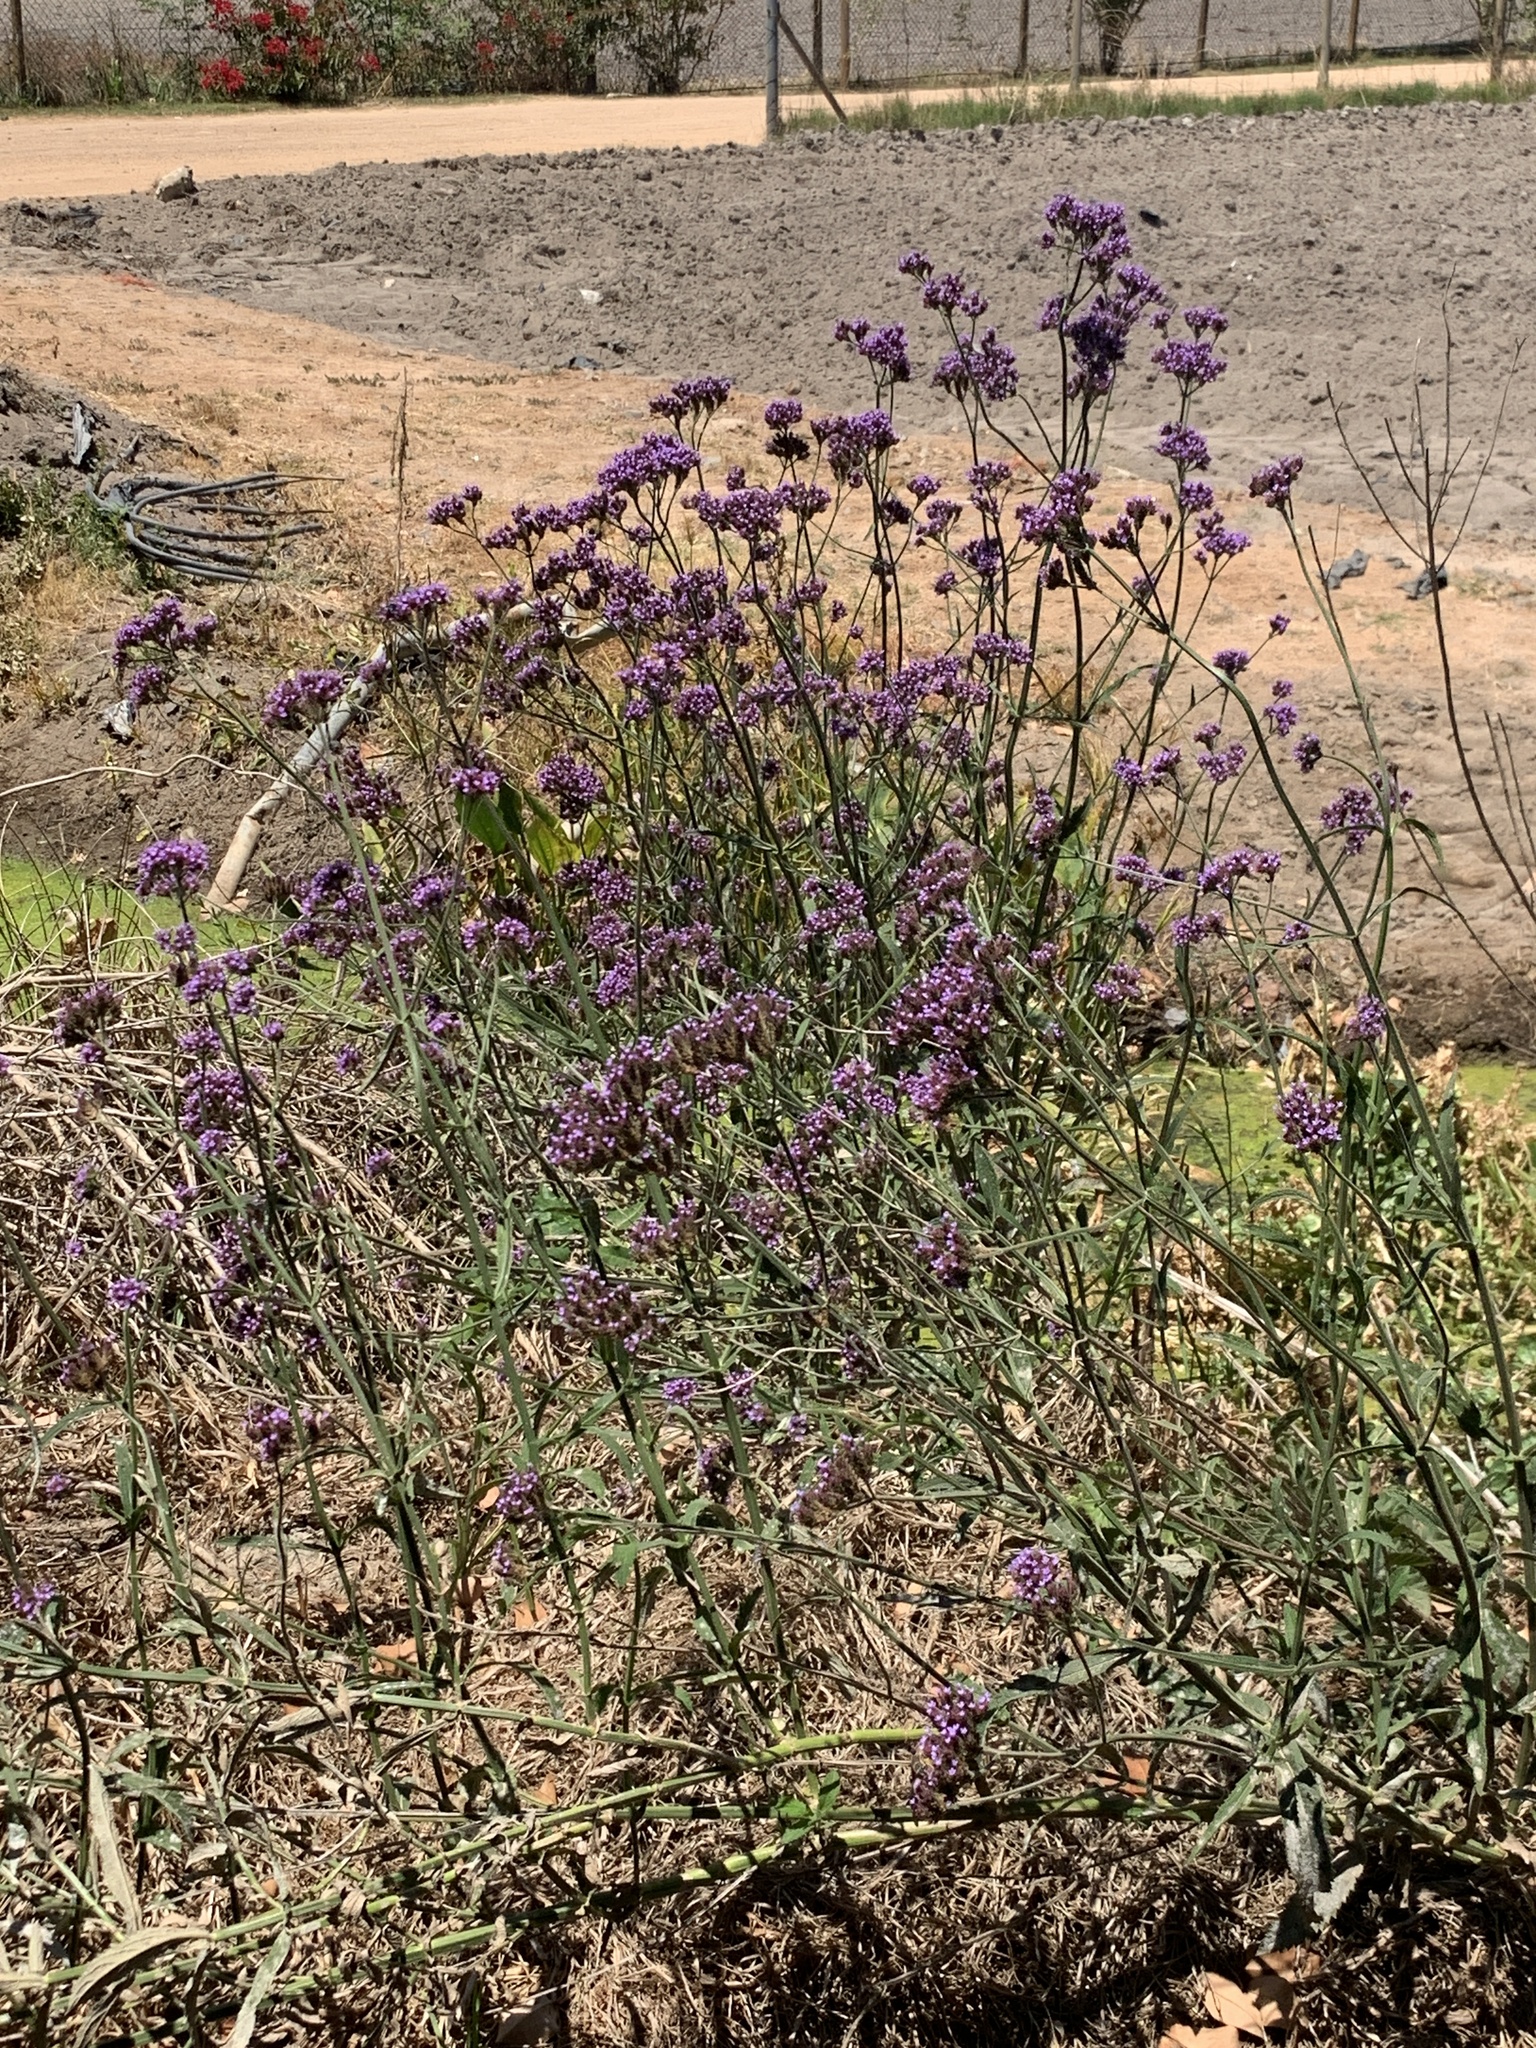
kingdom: Plantae
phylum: Tracheophyta
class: Magnoliopsida
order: Lamiales
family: Verbenaceae
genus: Verbena
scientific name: Verbena bonariensis
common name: Purpletop vervain
